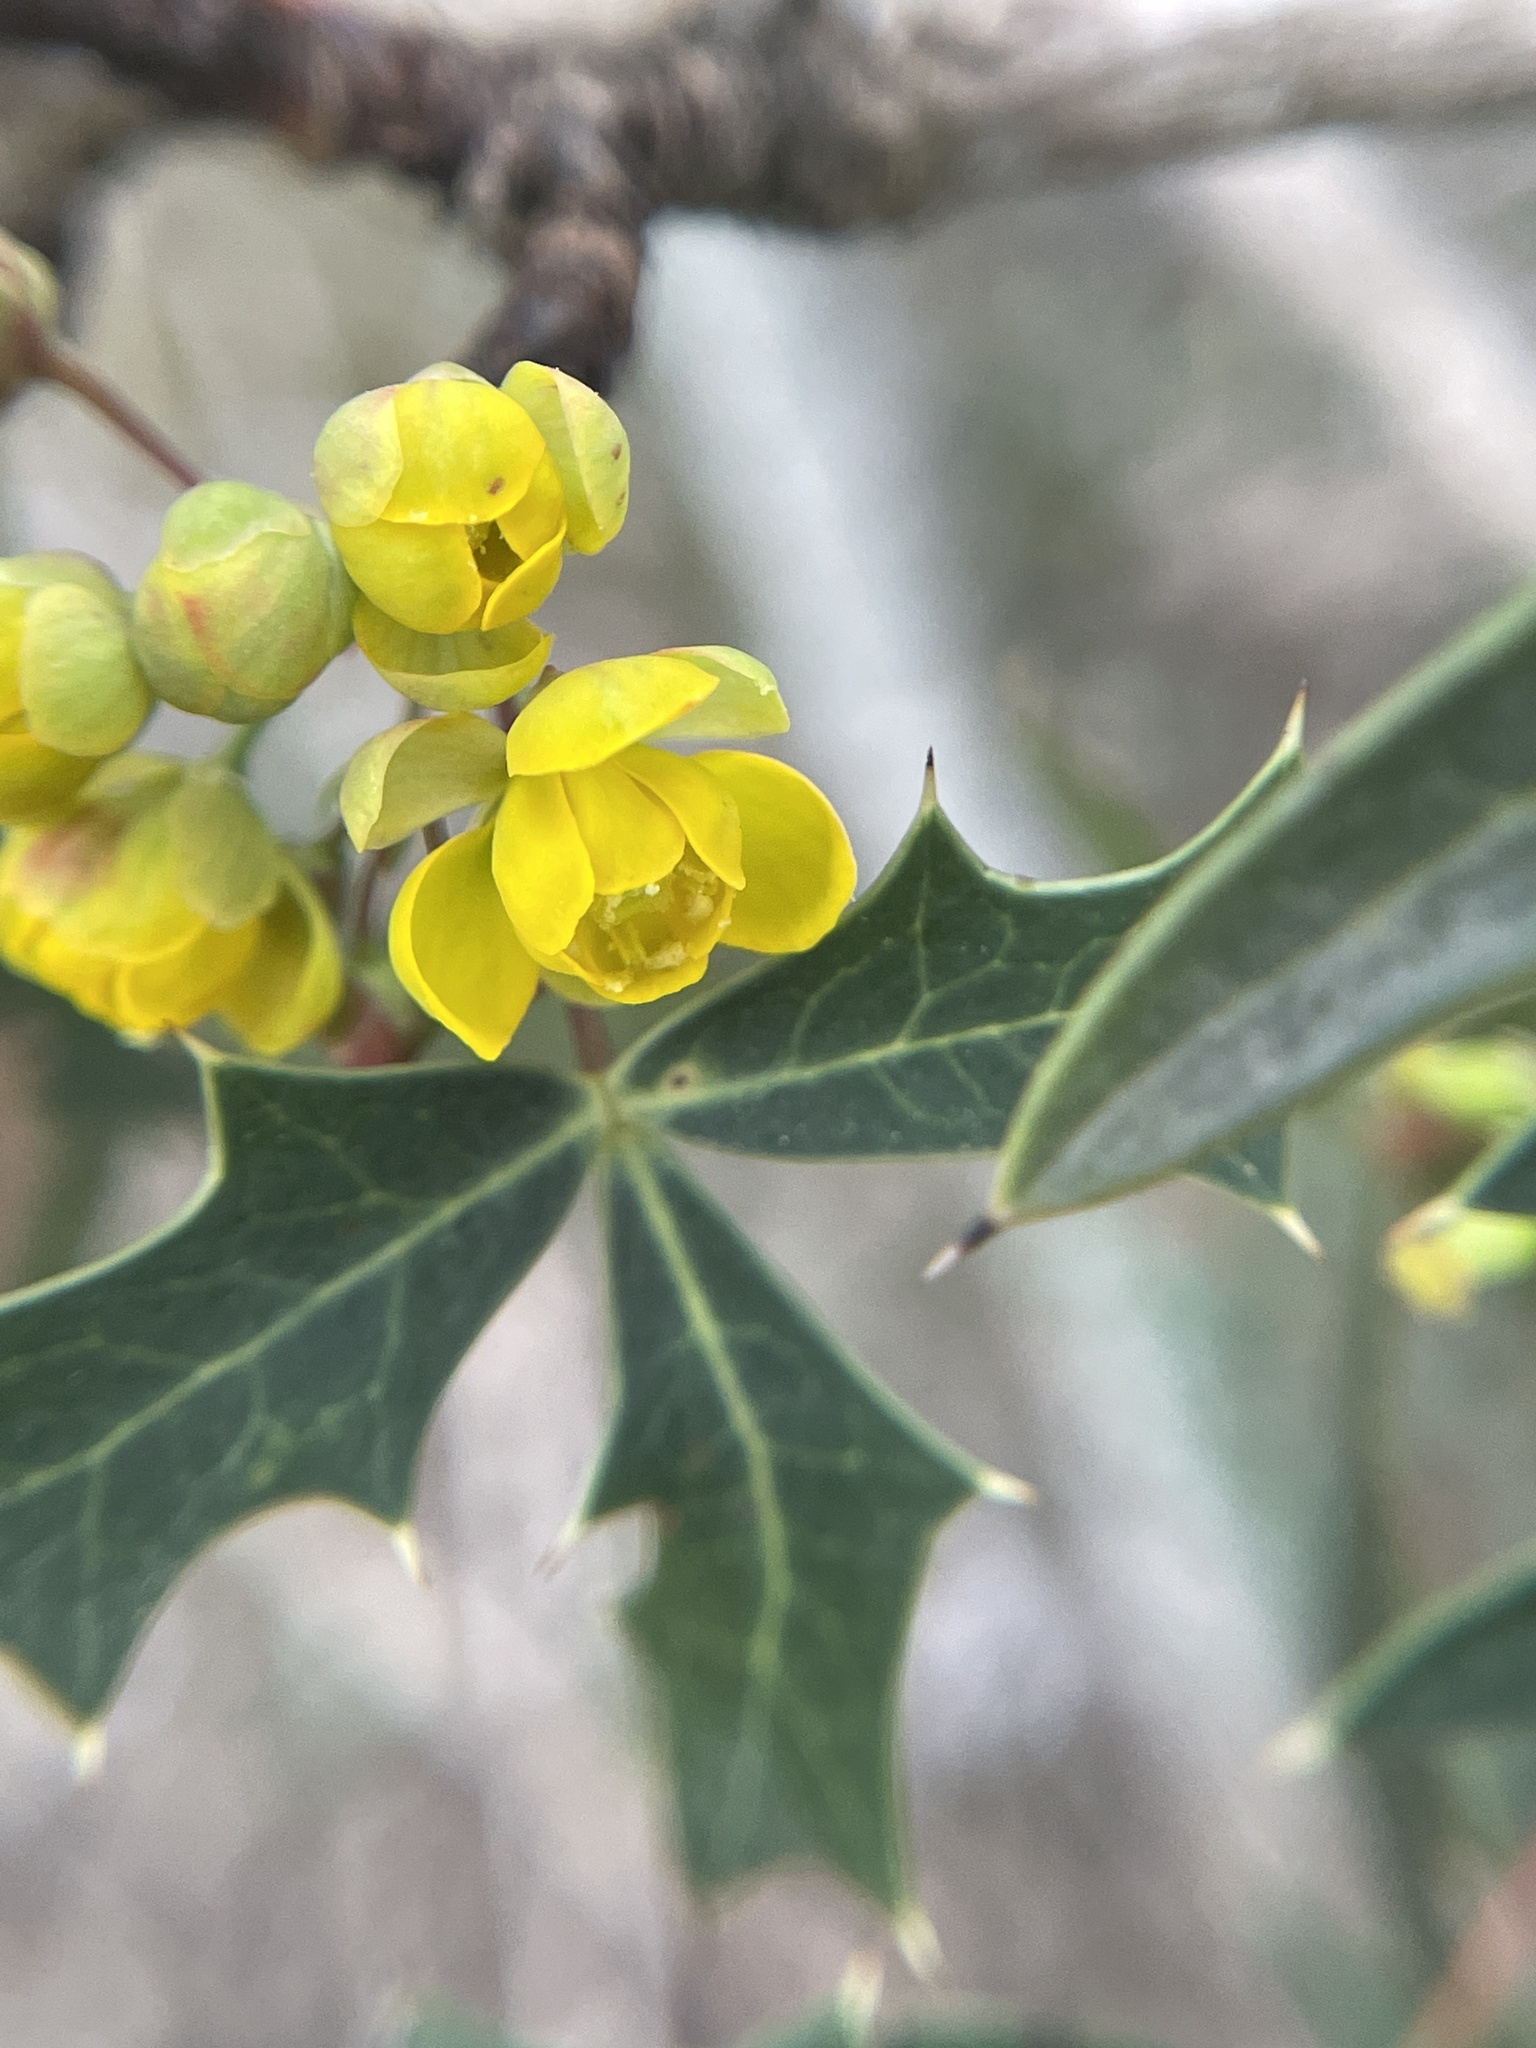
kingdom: Plantae
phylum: Tracheophyta
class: Magnoliopsida
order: Ranunculales
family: Berberidaceae
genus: Alloberberis
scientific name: Alloberberis trifoliolata
